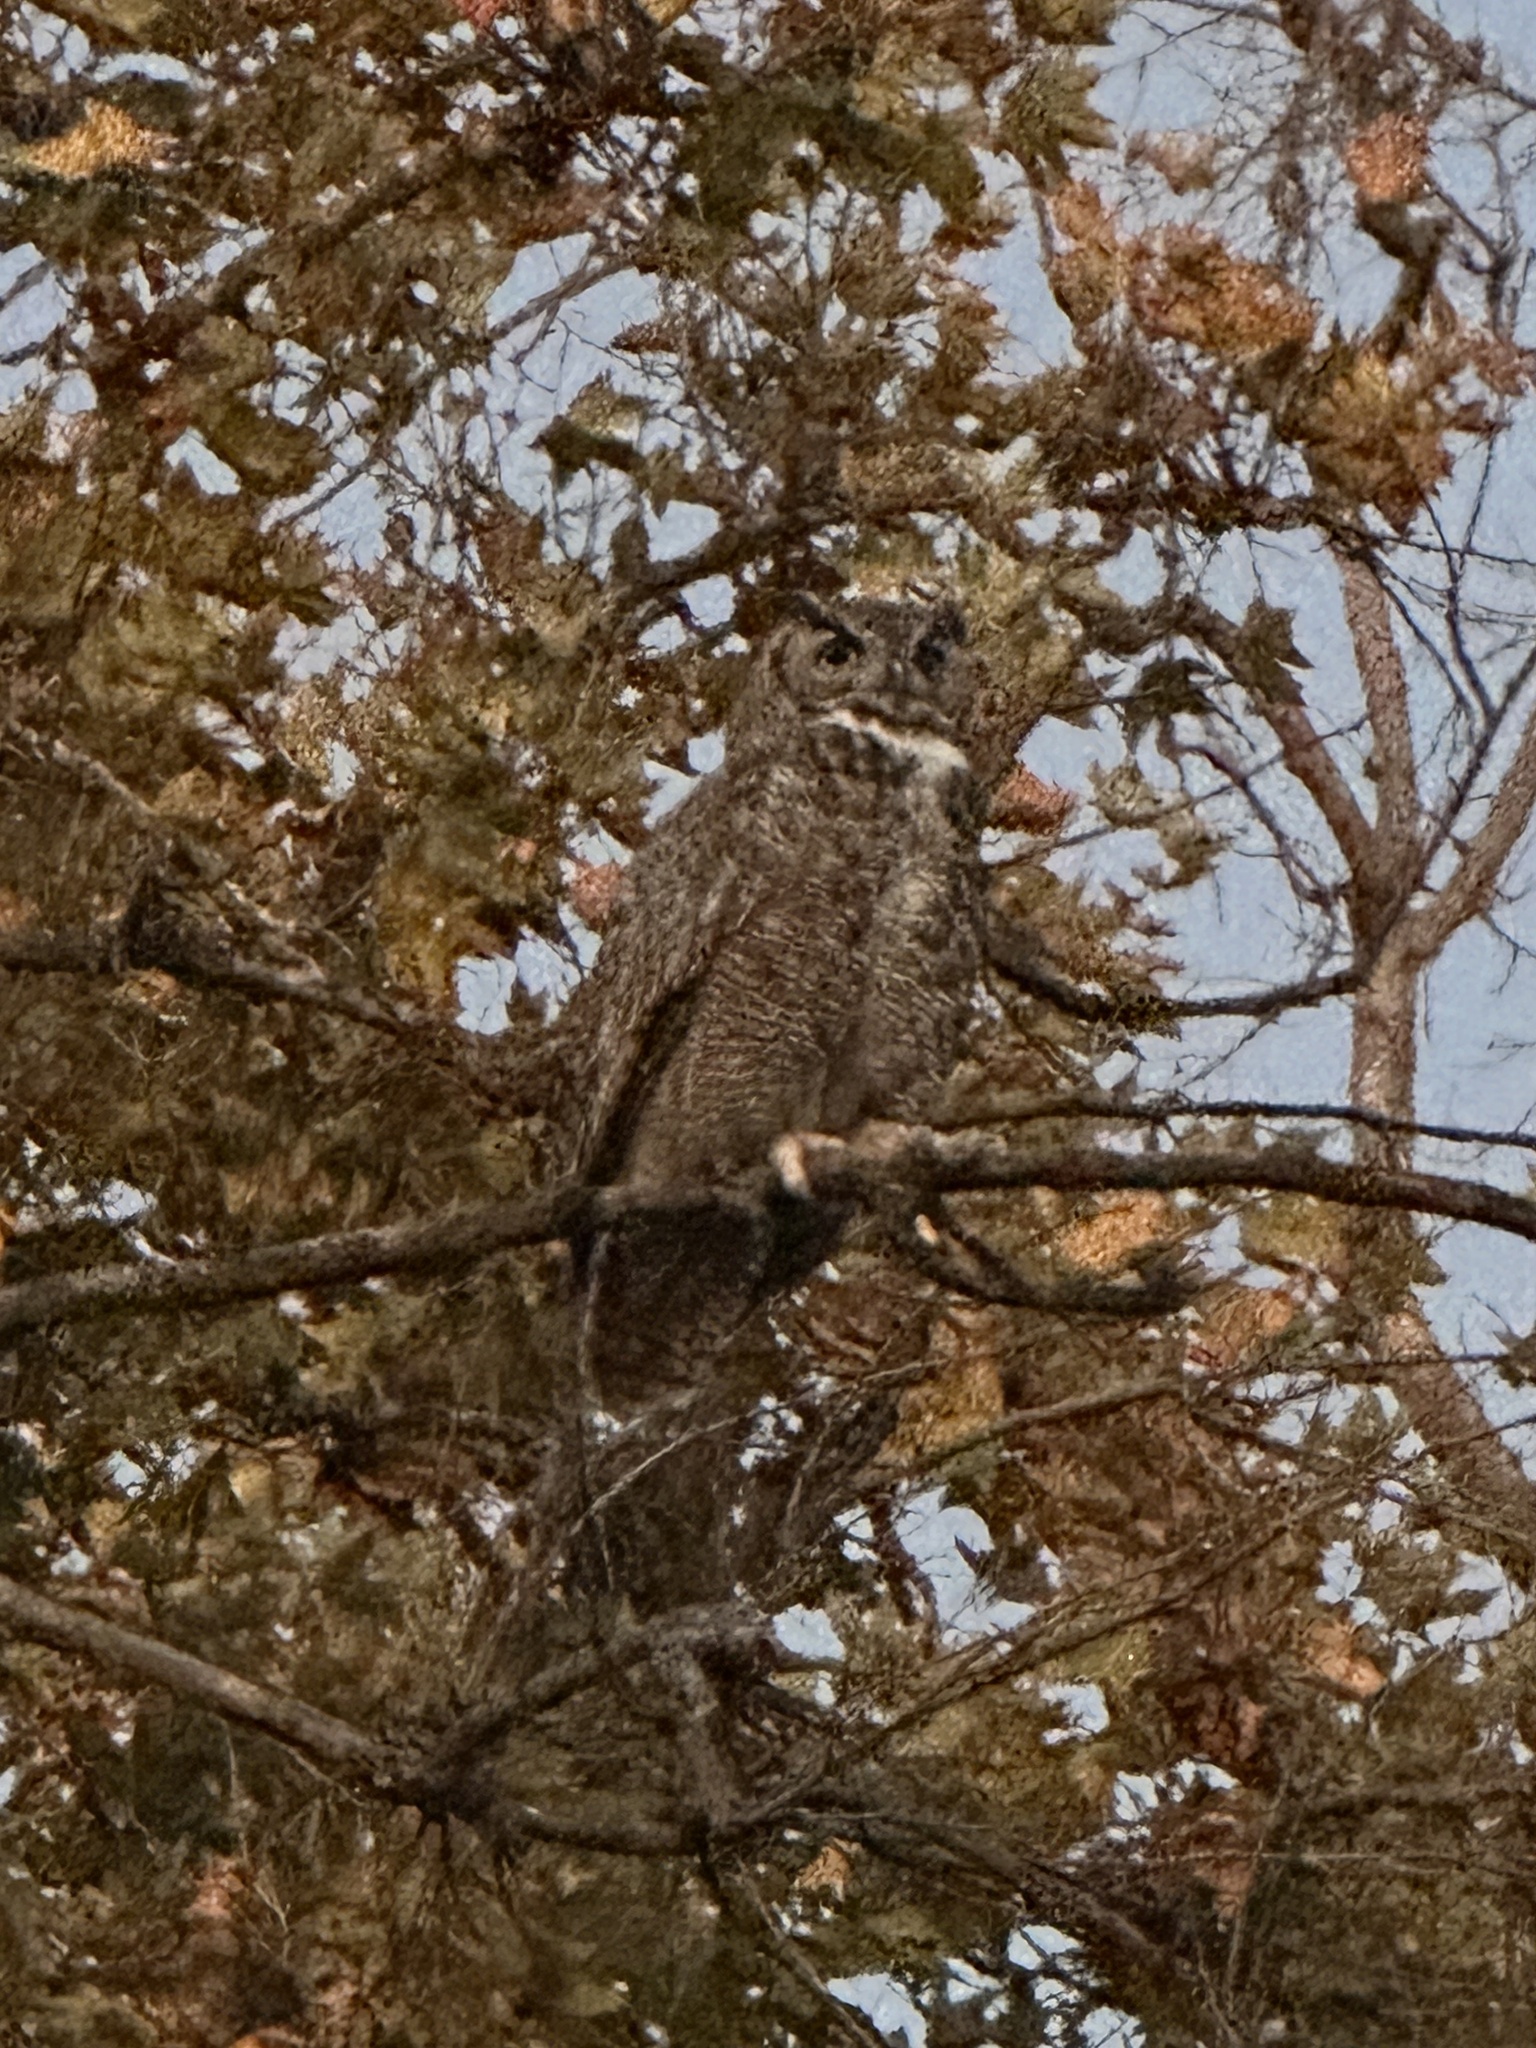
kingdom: Animalia
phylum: Chordata
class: Aves
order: Strigiformes
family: Strigidae
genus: Bubo
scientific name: Bubo virginianus
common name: Great horned owl
